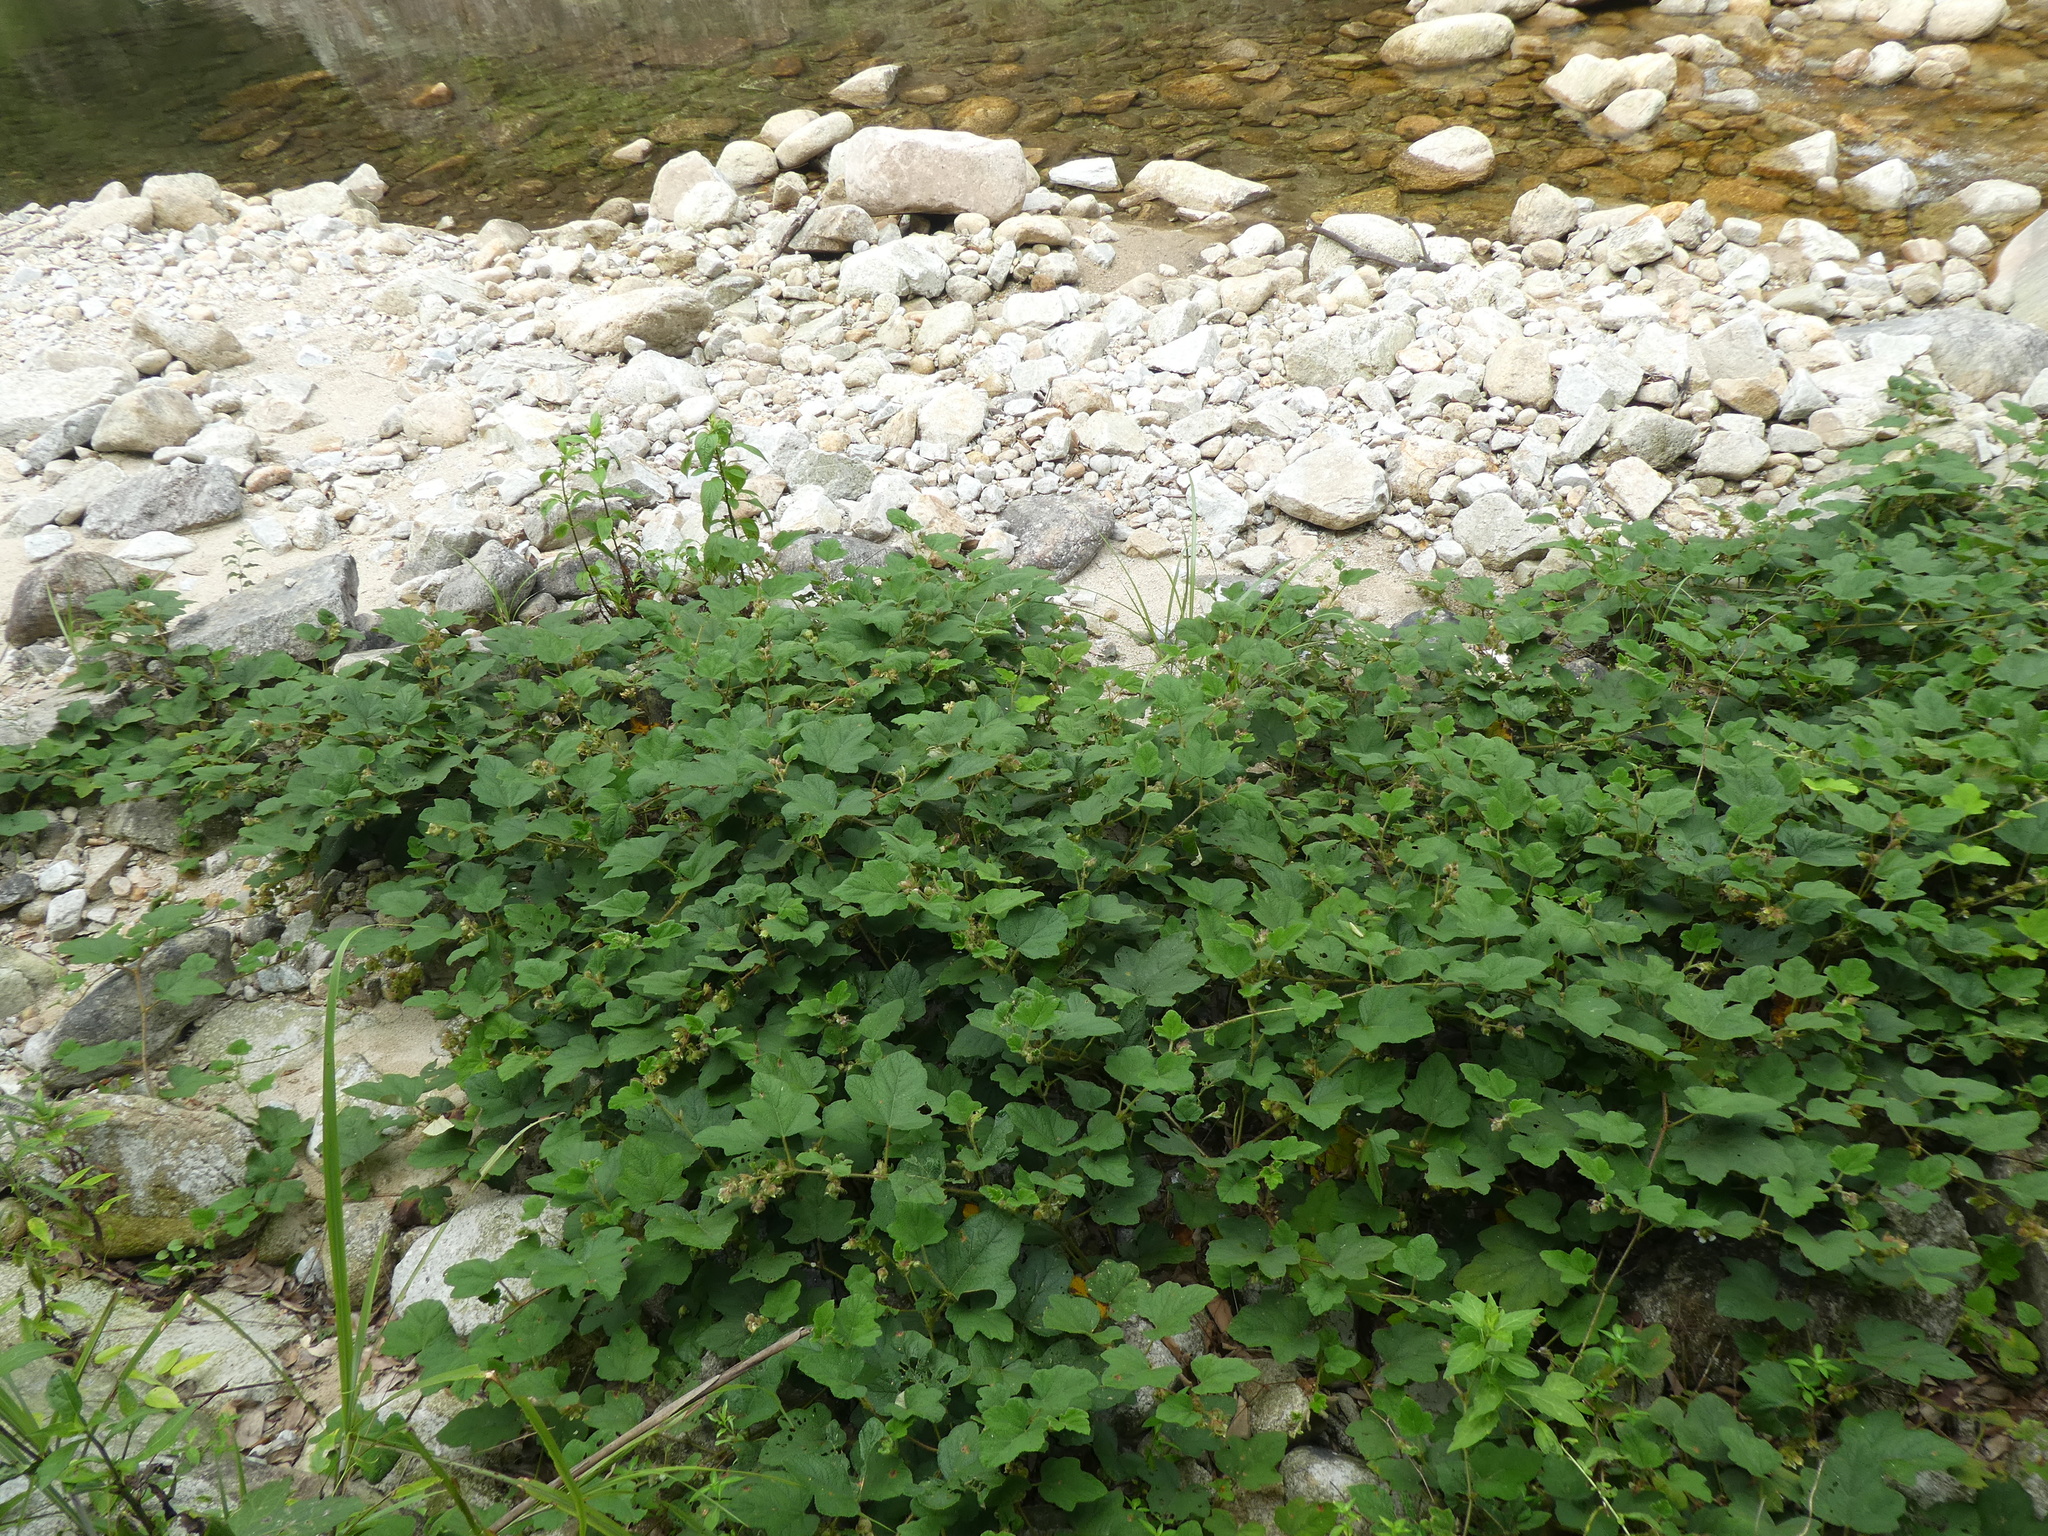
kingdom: Plantae
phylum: Tracheophyta
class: Magnoliopsida
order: Rosales
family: Rosaceae
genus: Rubus
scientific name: Rubus reflexus
